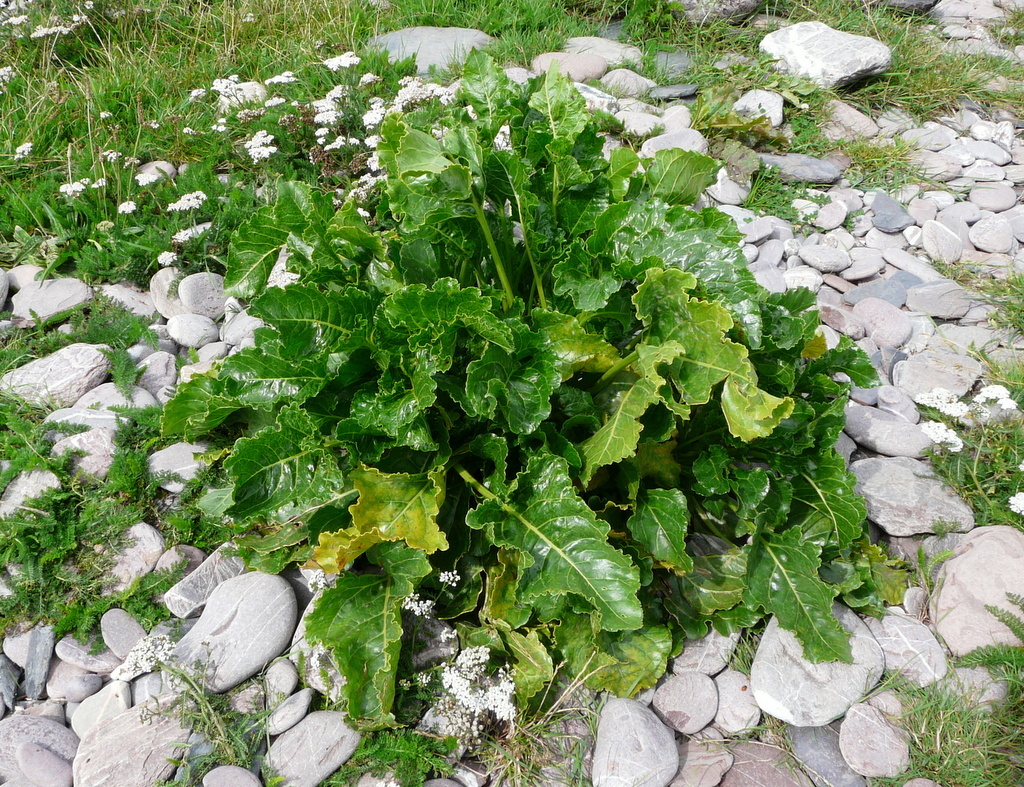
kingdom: Plantae
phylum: Tracheophyta
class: Magnoliopsida
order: Caryophyllales
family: Amaranthaceae
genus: Beta
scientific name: Beta vulgaris
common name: Beet
